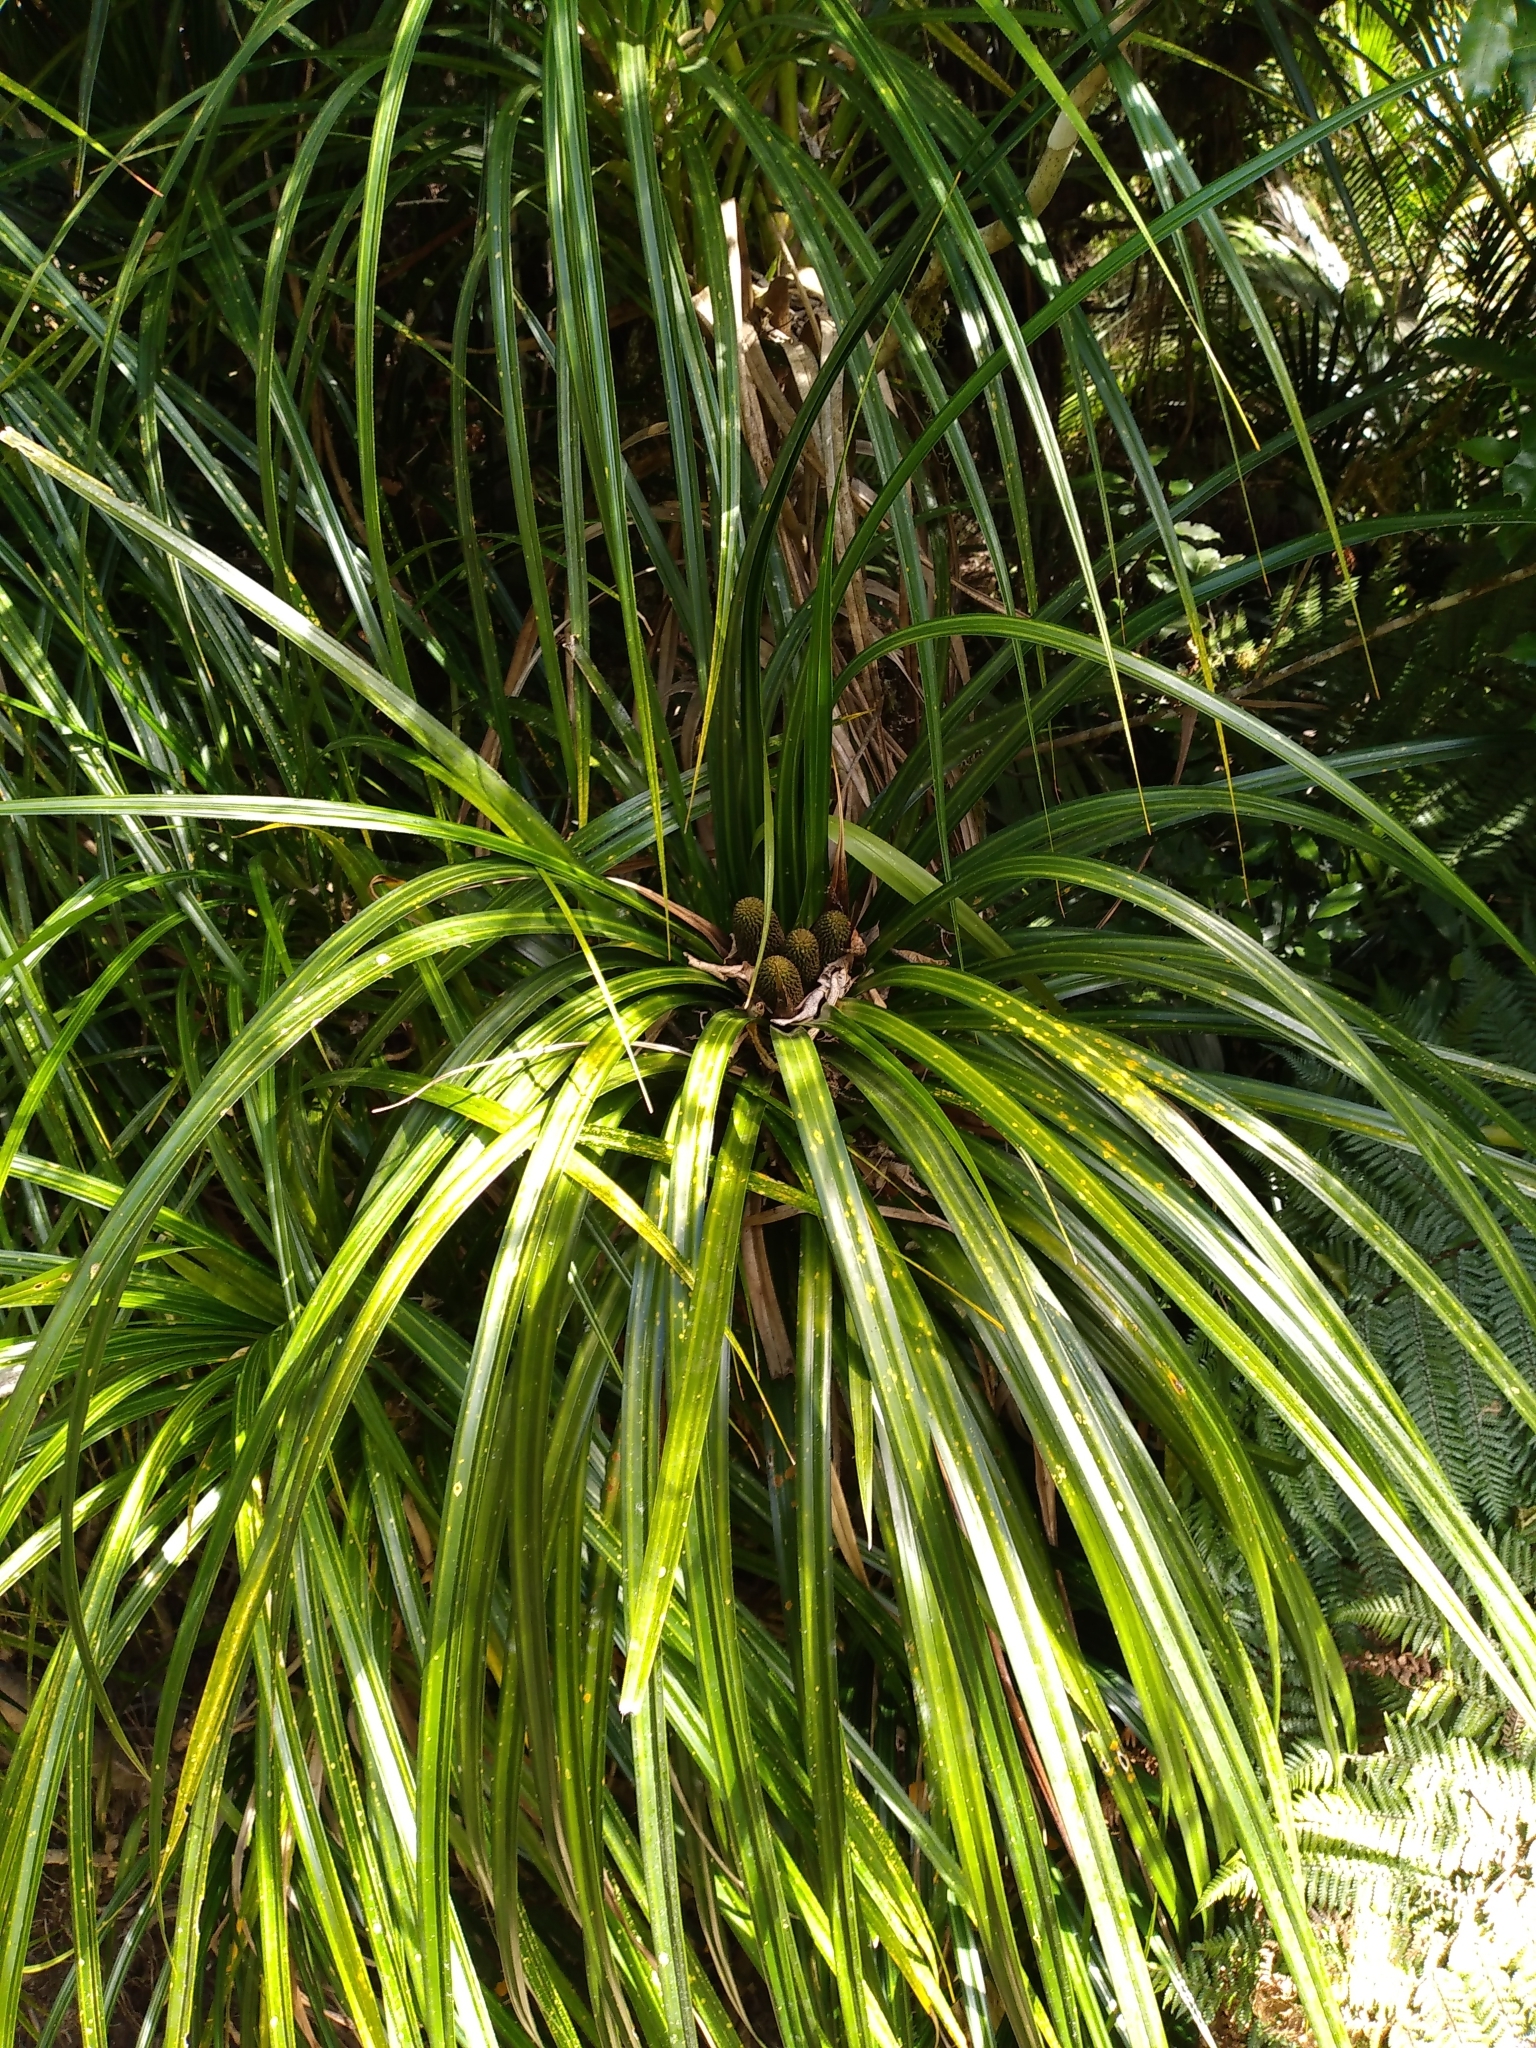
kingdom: Plantae
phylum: Tracheophyta
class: Liliopsida
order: Pandanales
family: Pandanaceae
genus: Freycinetia
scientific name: Freycinetia banksii
